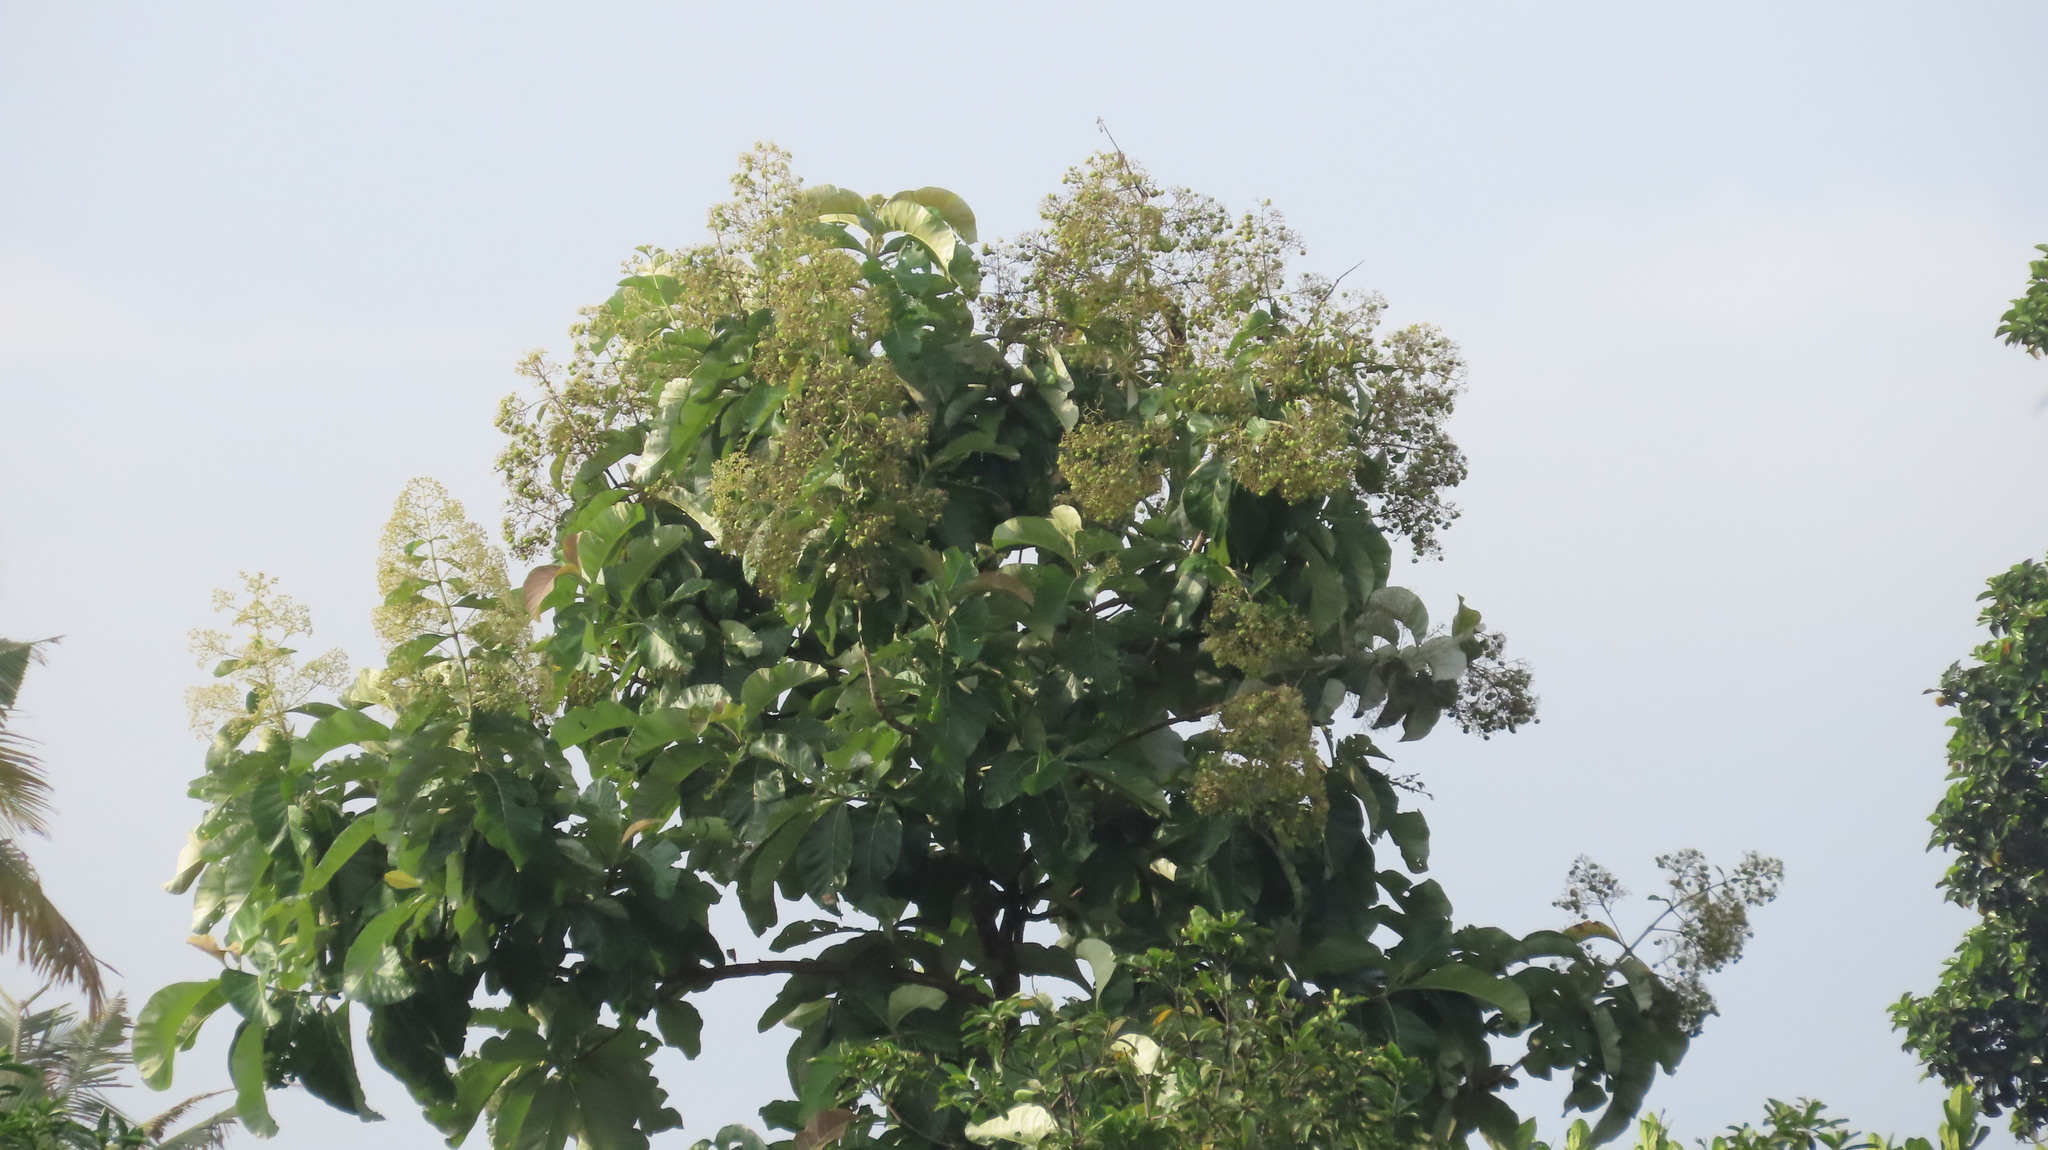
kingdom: Plantae
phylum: Tracheophyta
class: Magnoliopsida
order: Lamiales
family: Lamiaceae
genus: Tectona
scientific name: Tectona grandis
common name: Teak
